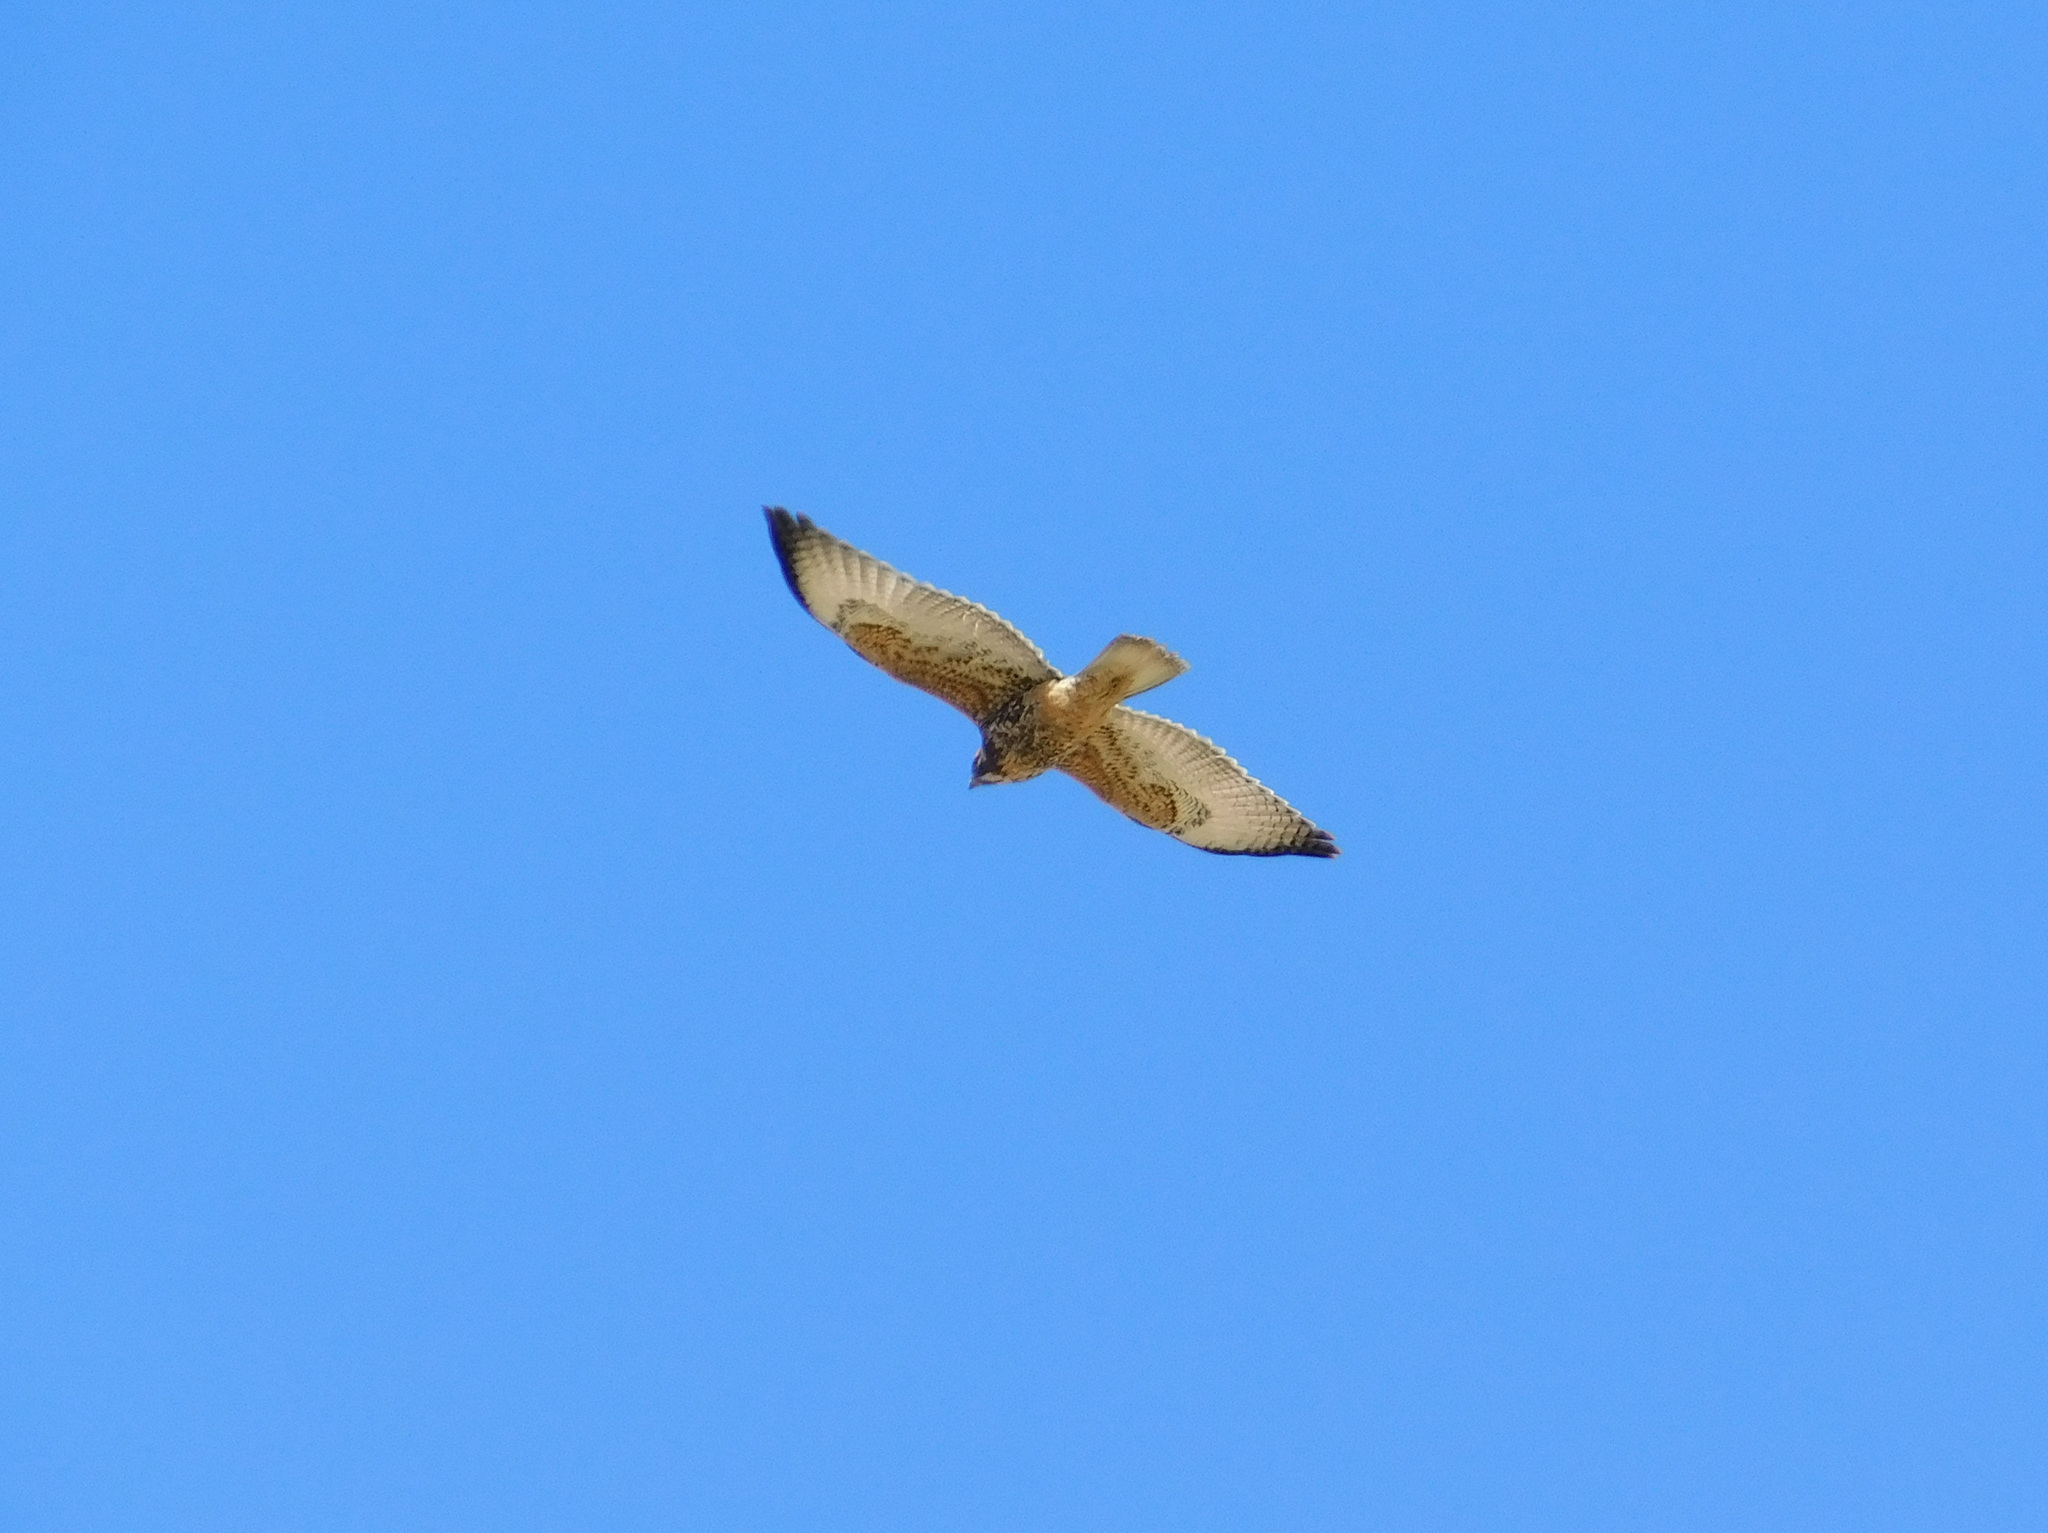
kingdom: Animalia
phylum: Chordata
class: Aves
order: Accipitriformes
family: Accipitridae
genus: Buteo
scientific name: Buteo polyosoma
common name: Variable hawk
